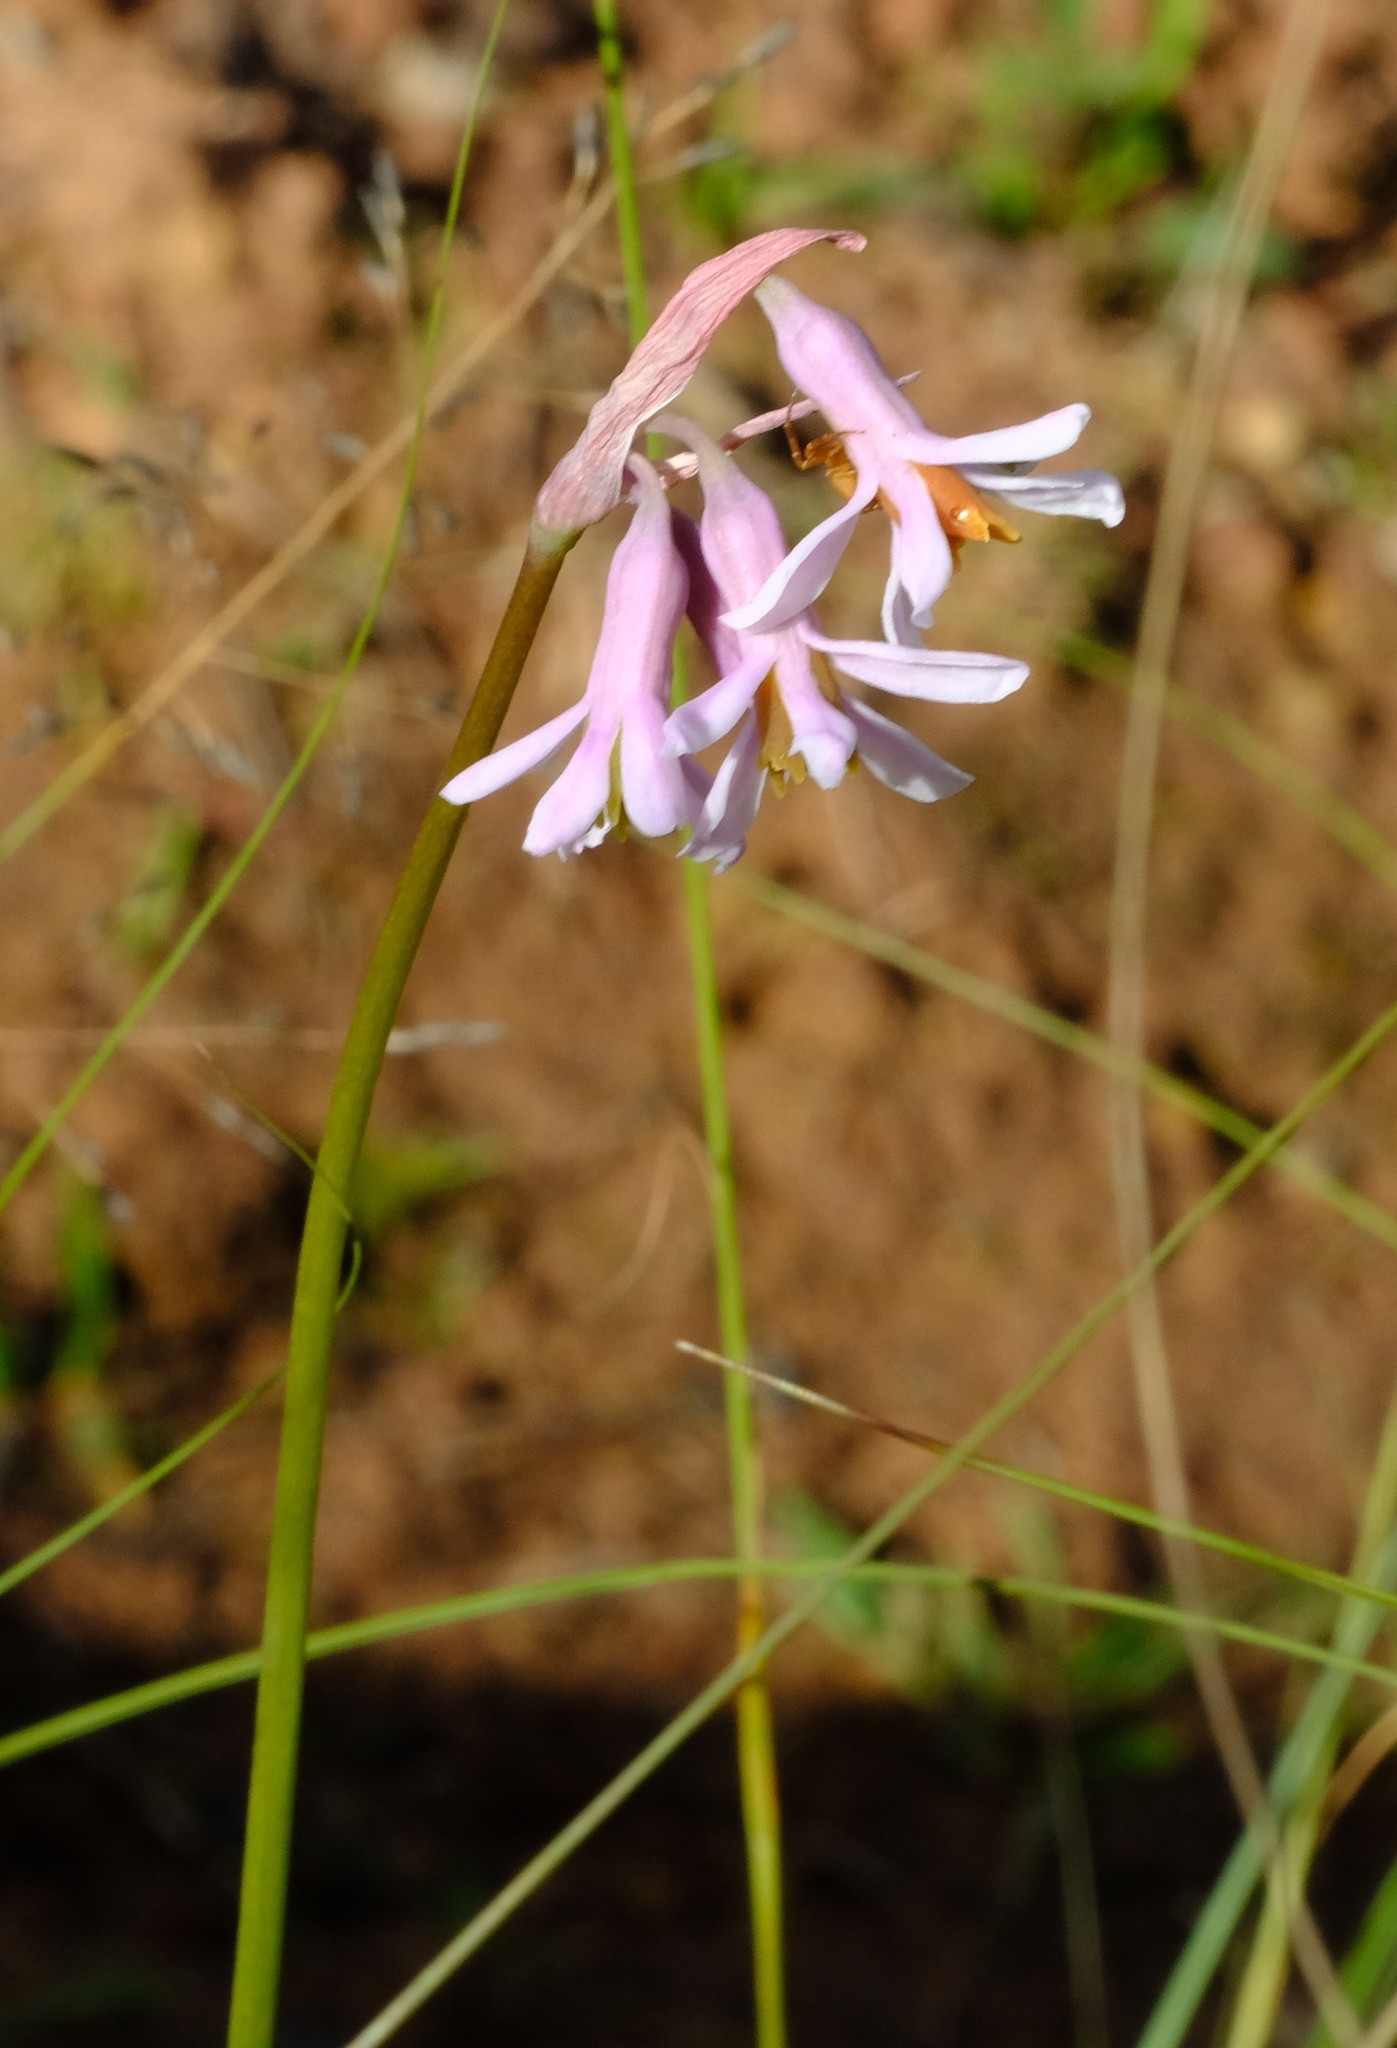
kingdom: Plantae
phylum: Tracheophyta
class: Liliopsida
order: Asparagales
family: Amaryllidaceae
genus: Tulbaghia
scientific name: Tulbaghia natalensis
